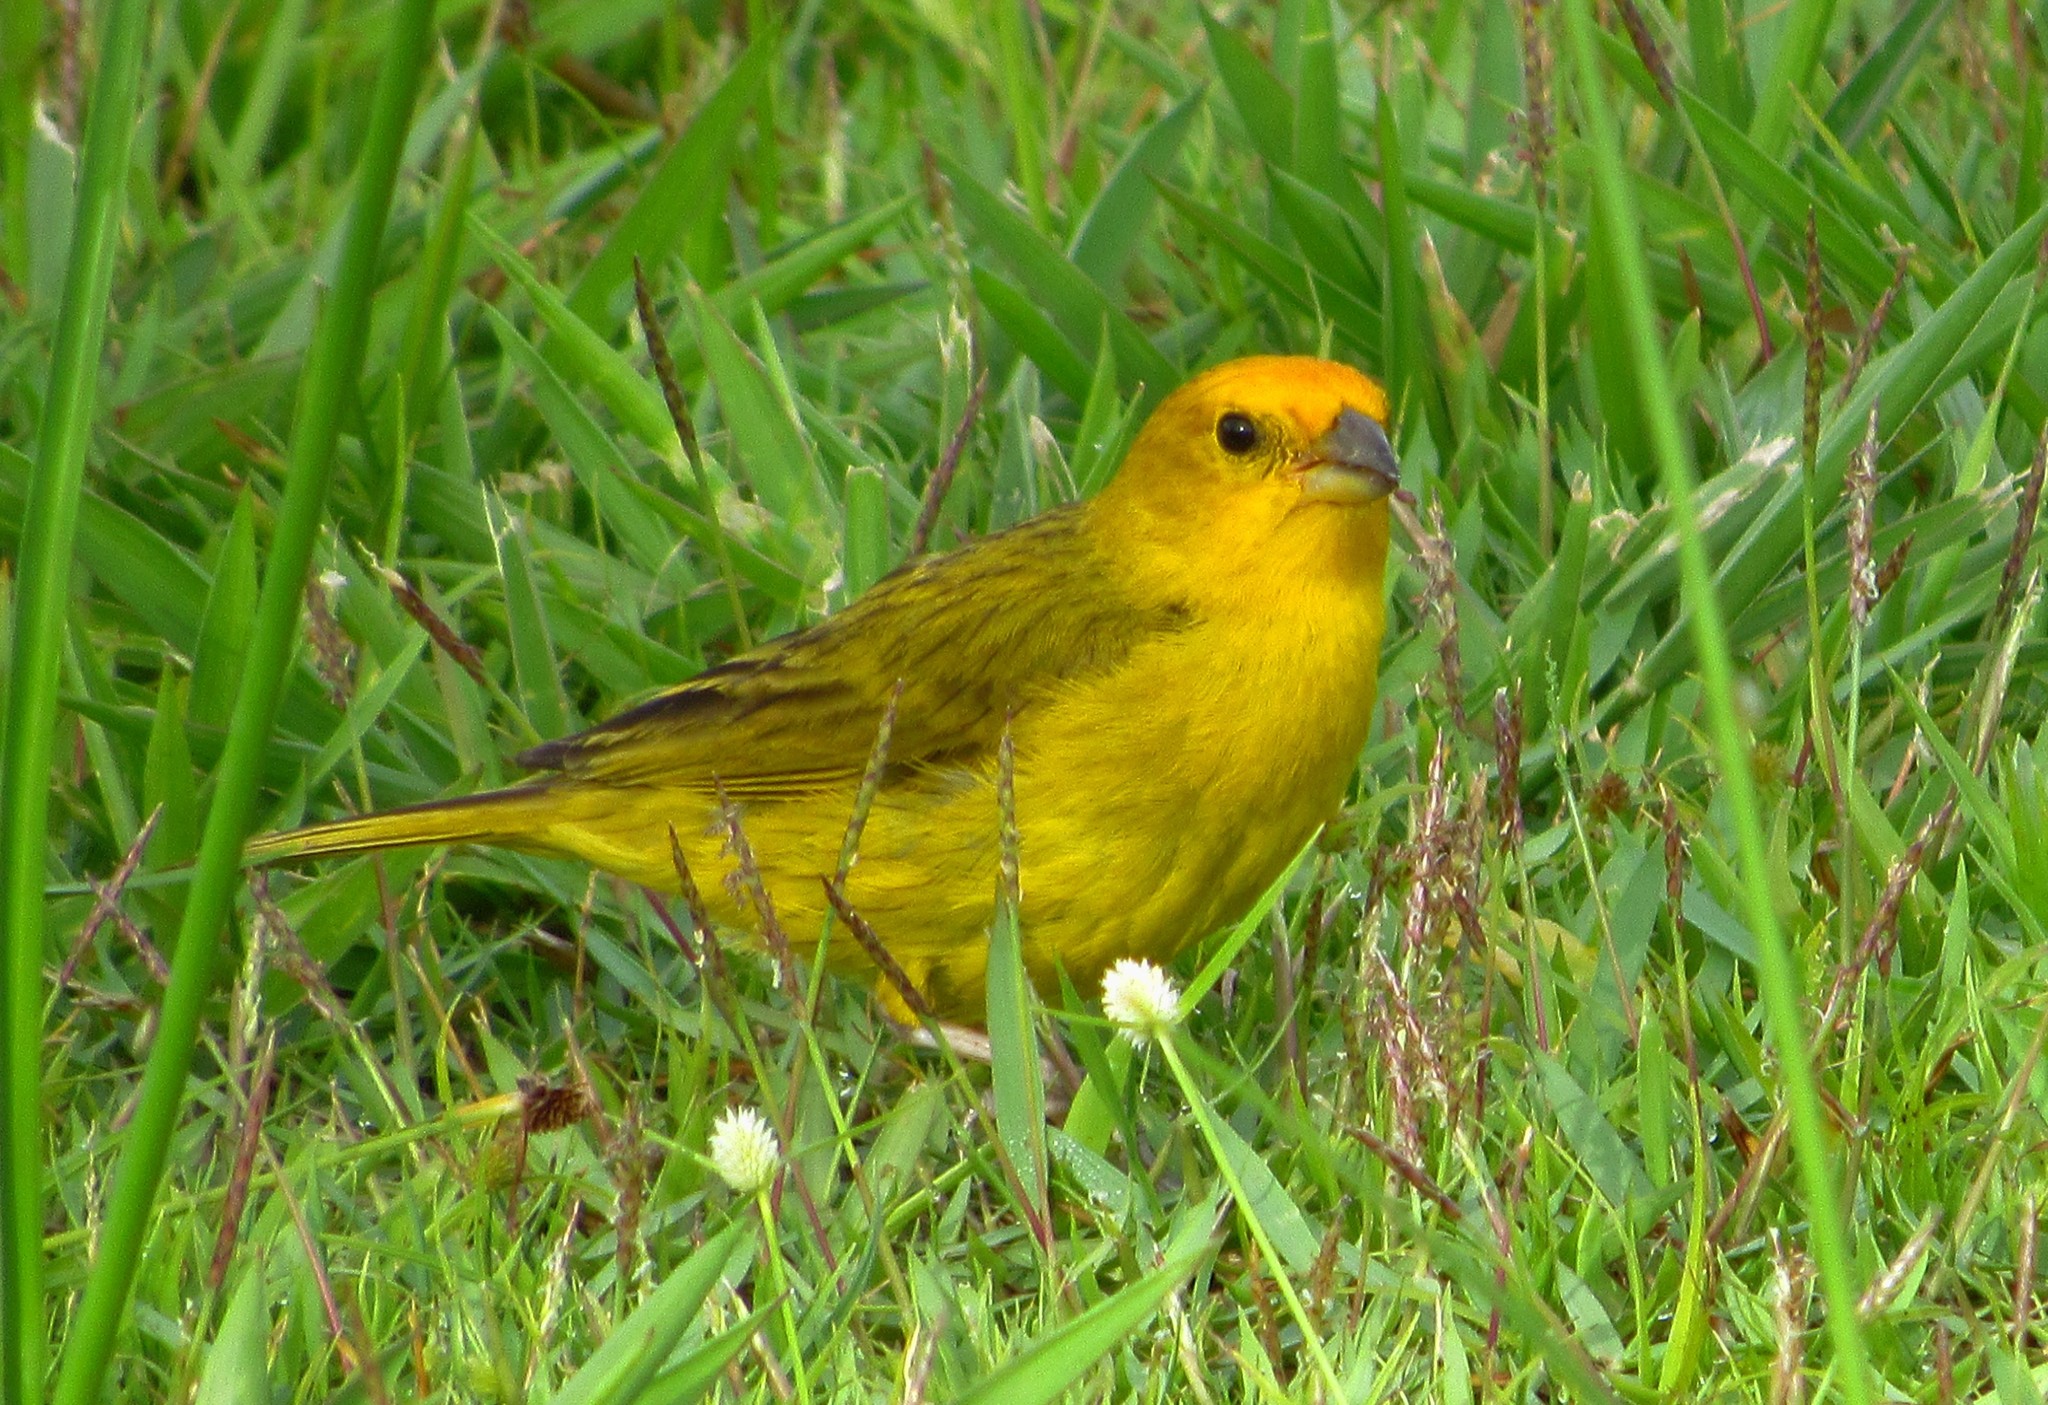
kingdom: Animalia
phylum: Chordata
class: Aves
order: Passeriformes
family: Thraupidae
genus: Sicalis
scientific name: Sicalis flaveola
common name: Saffron finch
